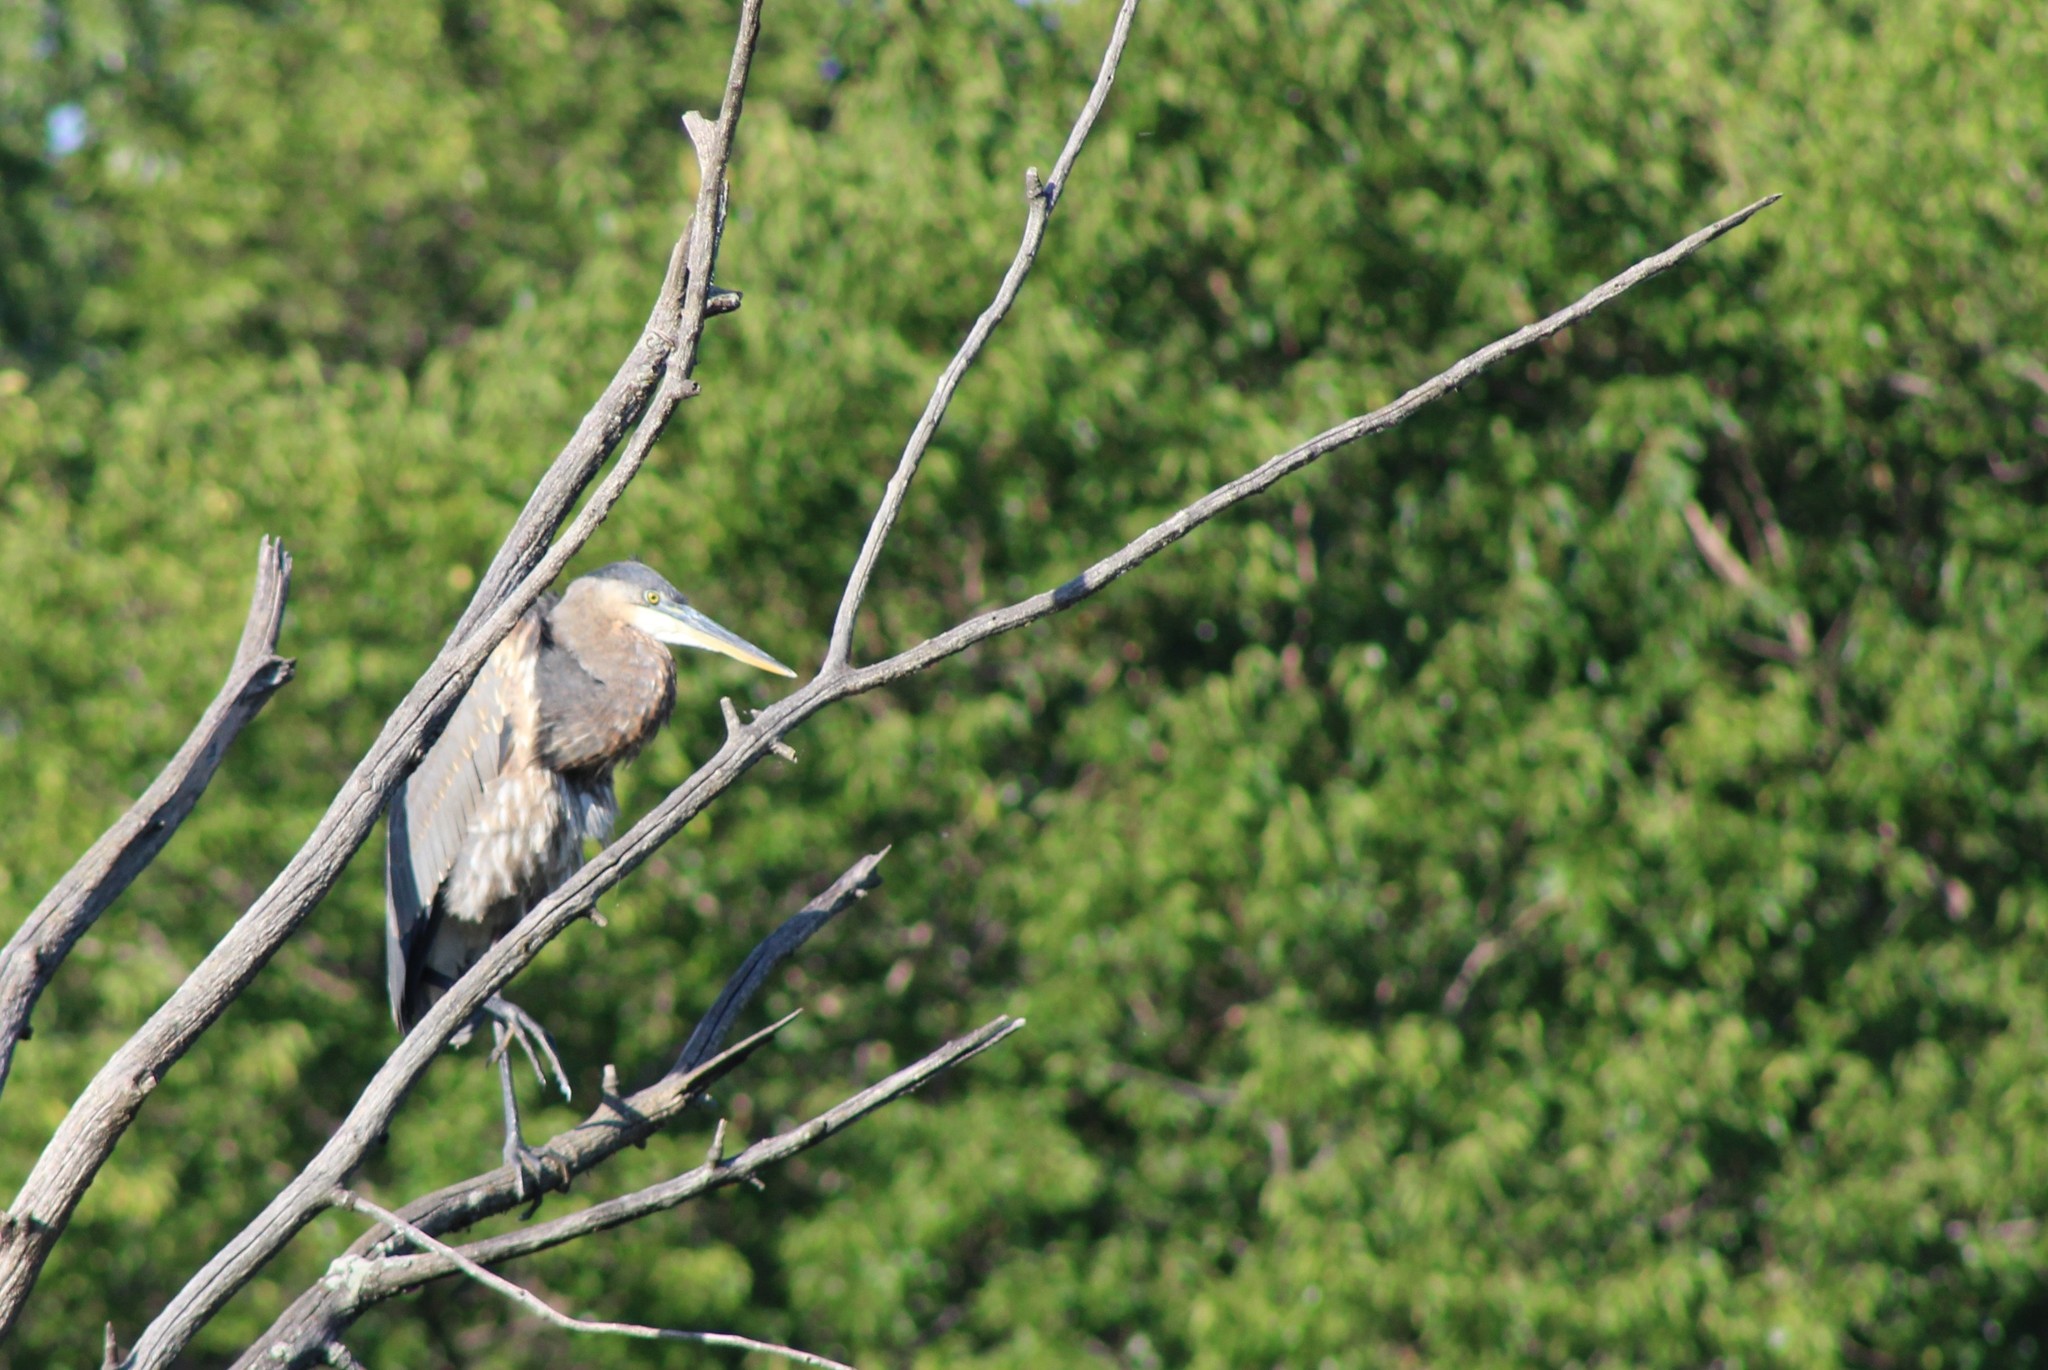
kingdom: Animalia
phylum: Chordata
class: Aves
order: Pelecaniformes
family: Ardeidae
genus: Ardea
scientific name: Ardea herodias
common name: Great blue heron
